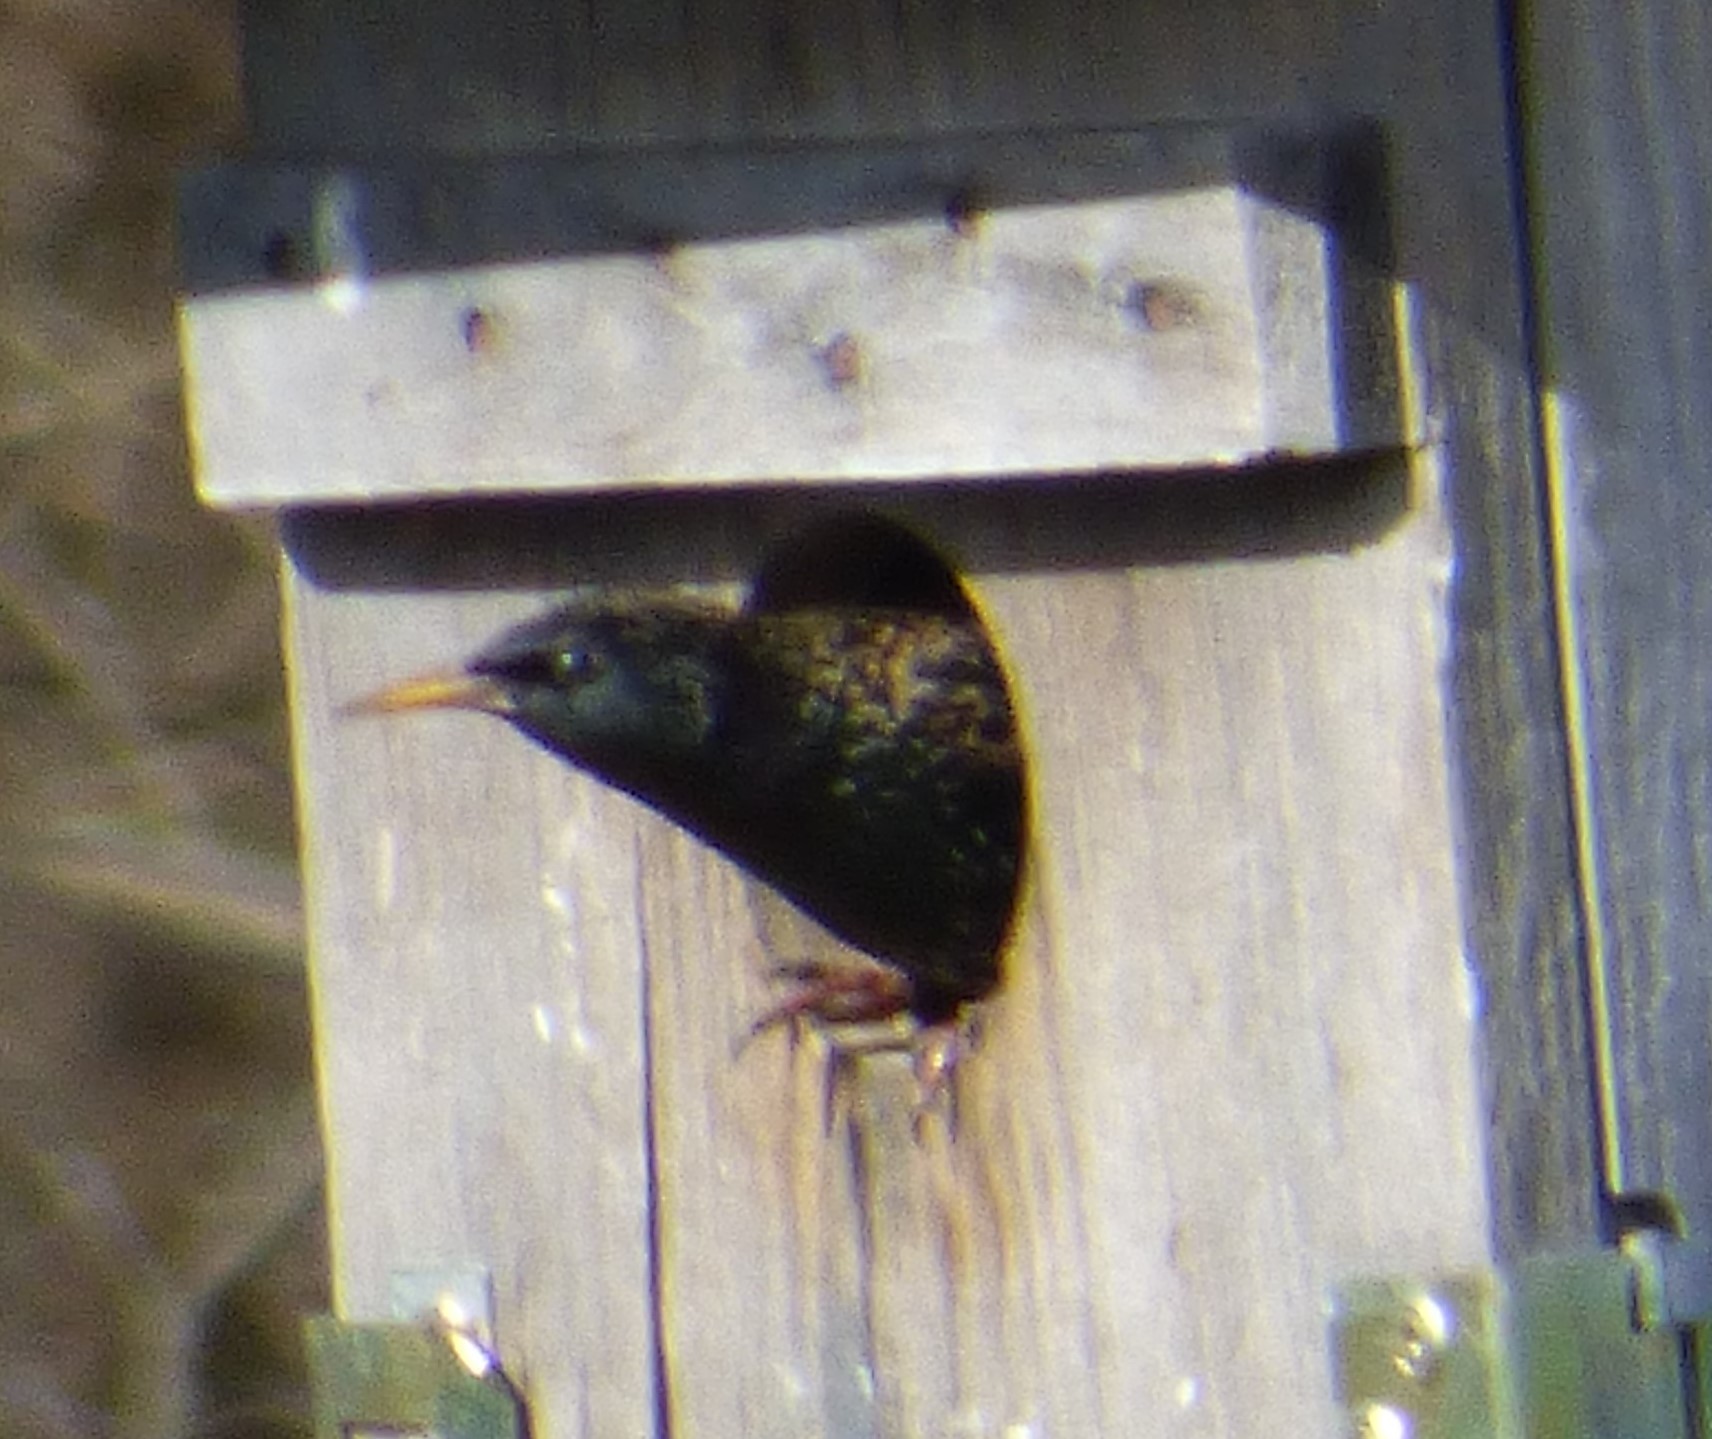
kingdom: Animalia
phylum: Chordata
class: Aves
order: Passeriformes
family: Sturnidae
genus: Sturnus
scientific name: Sturnus vulgaris
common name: Common starling
